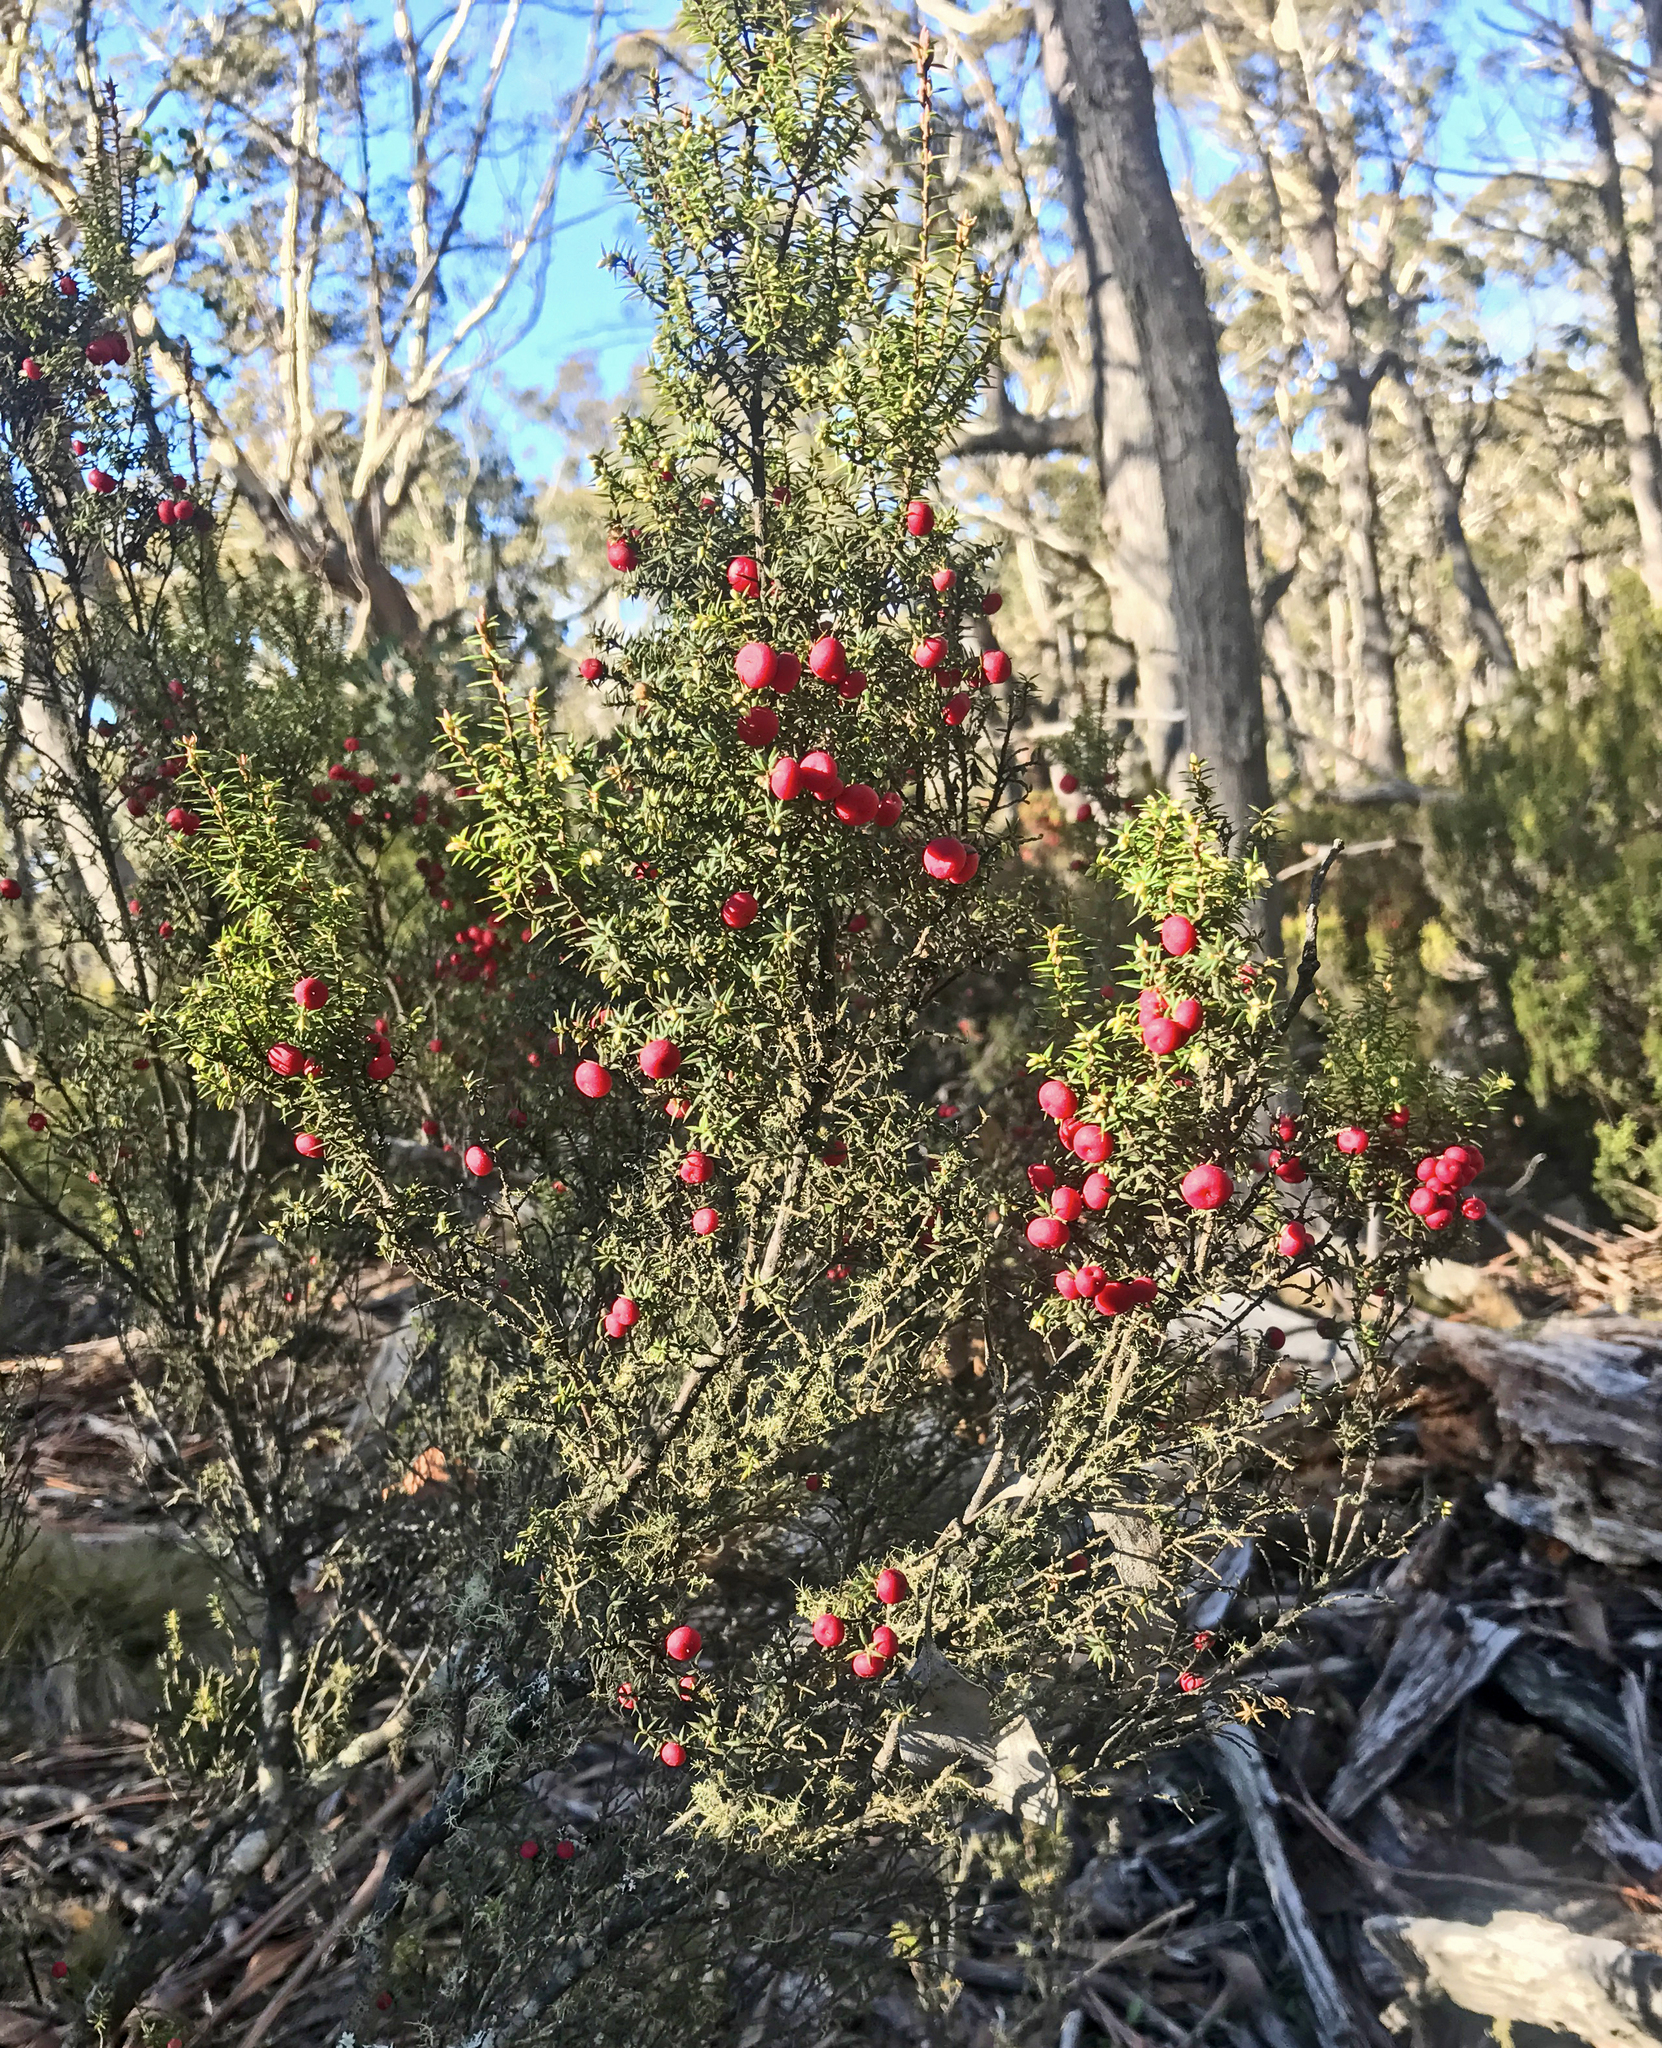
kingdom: Plantae
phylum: Tracheophyta
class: Magnoliopsida
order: Ericales
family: Ericaceae
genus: Leptecophylla
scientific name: Leptecophylla parvifolia
